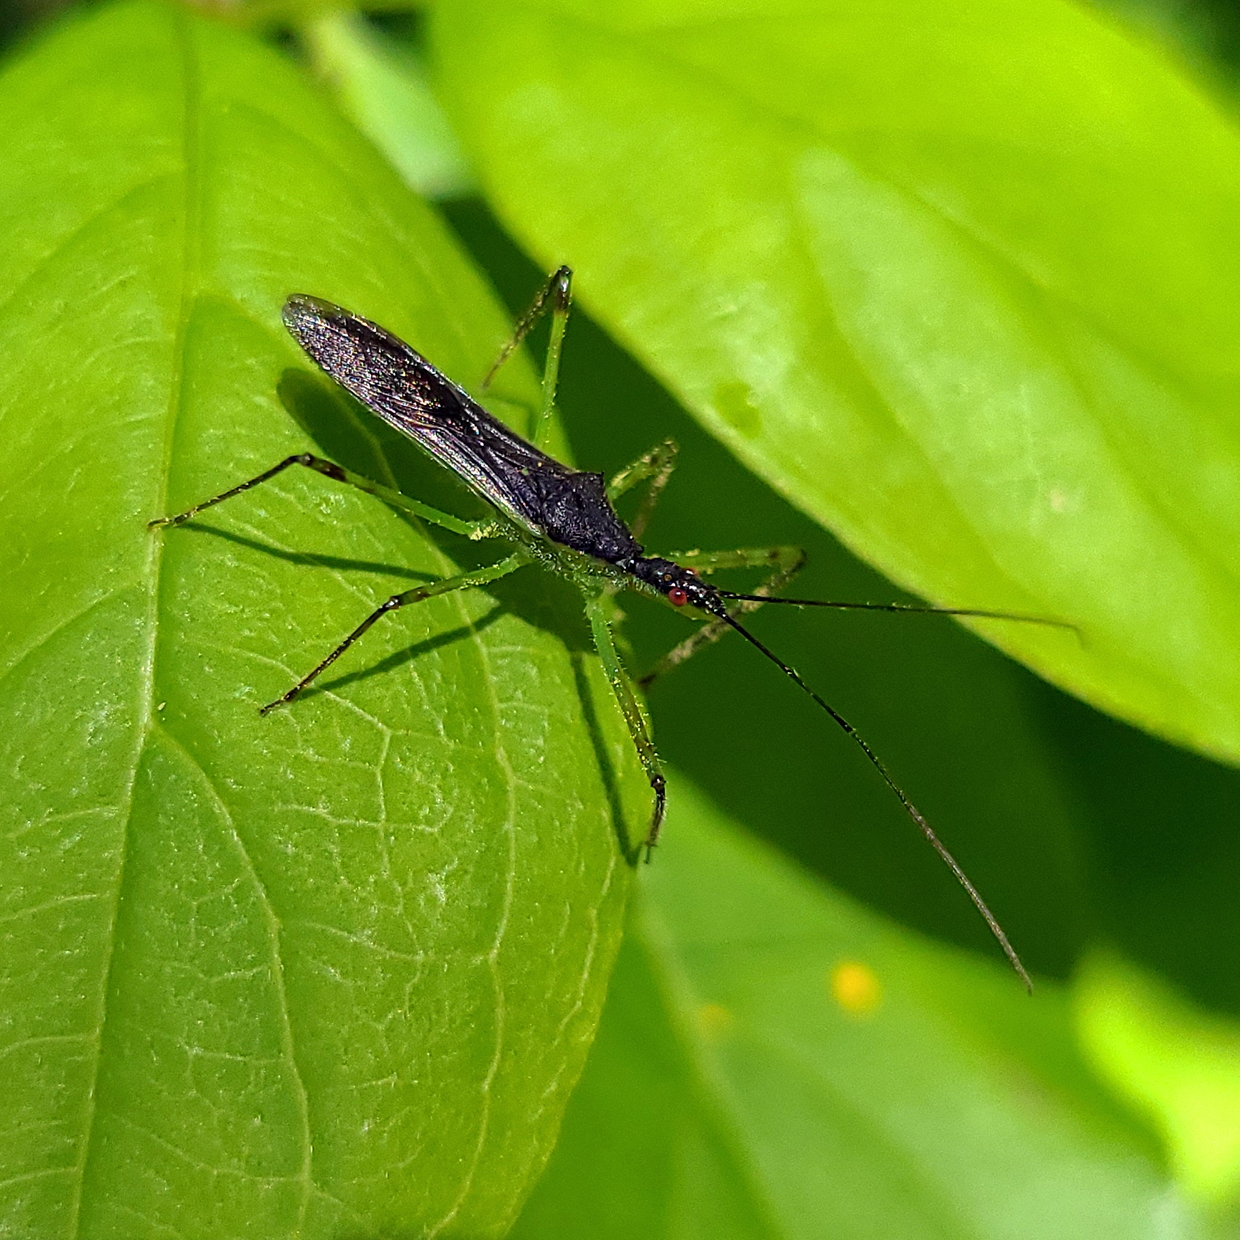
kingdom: Animalia
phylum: Arthropoda
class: Insecta
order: Hemiptera
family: Reduviidae
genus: Zelus
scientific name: Zelus luridus
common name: Pale green assassin bug
